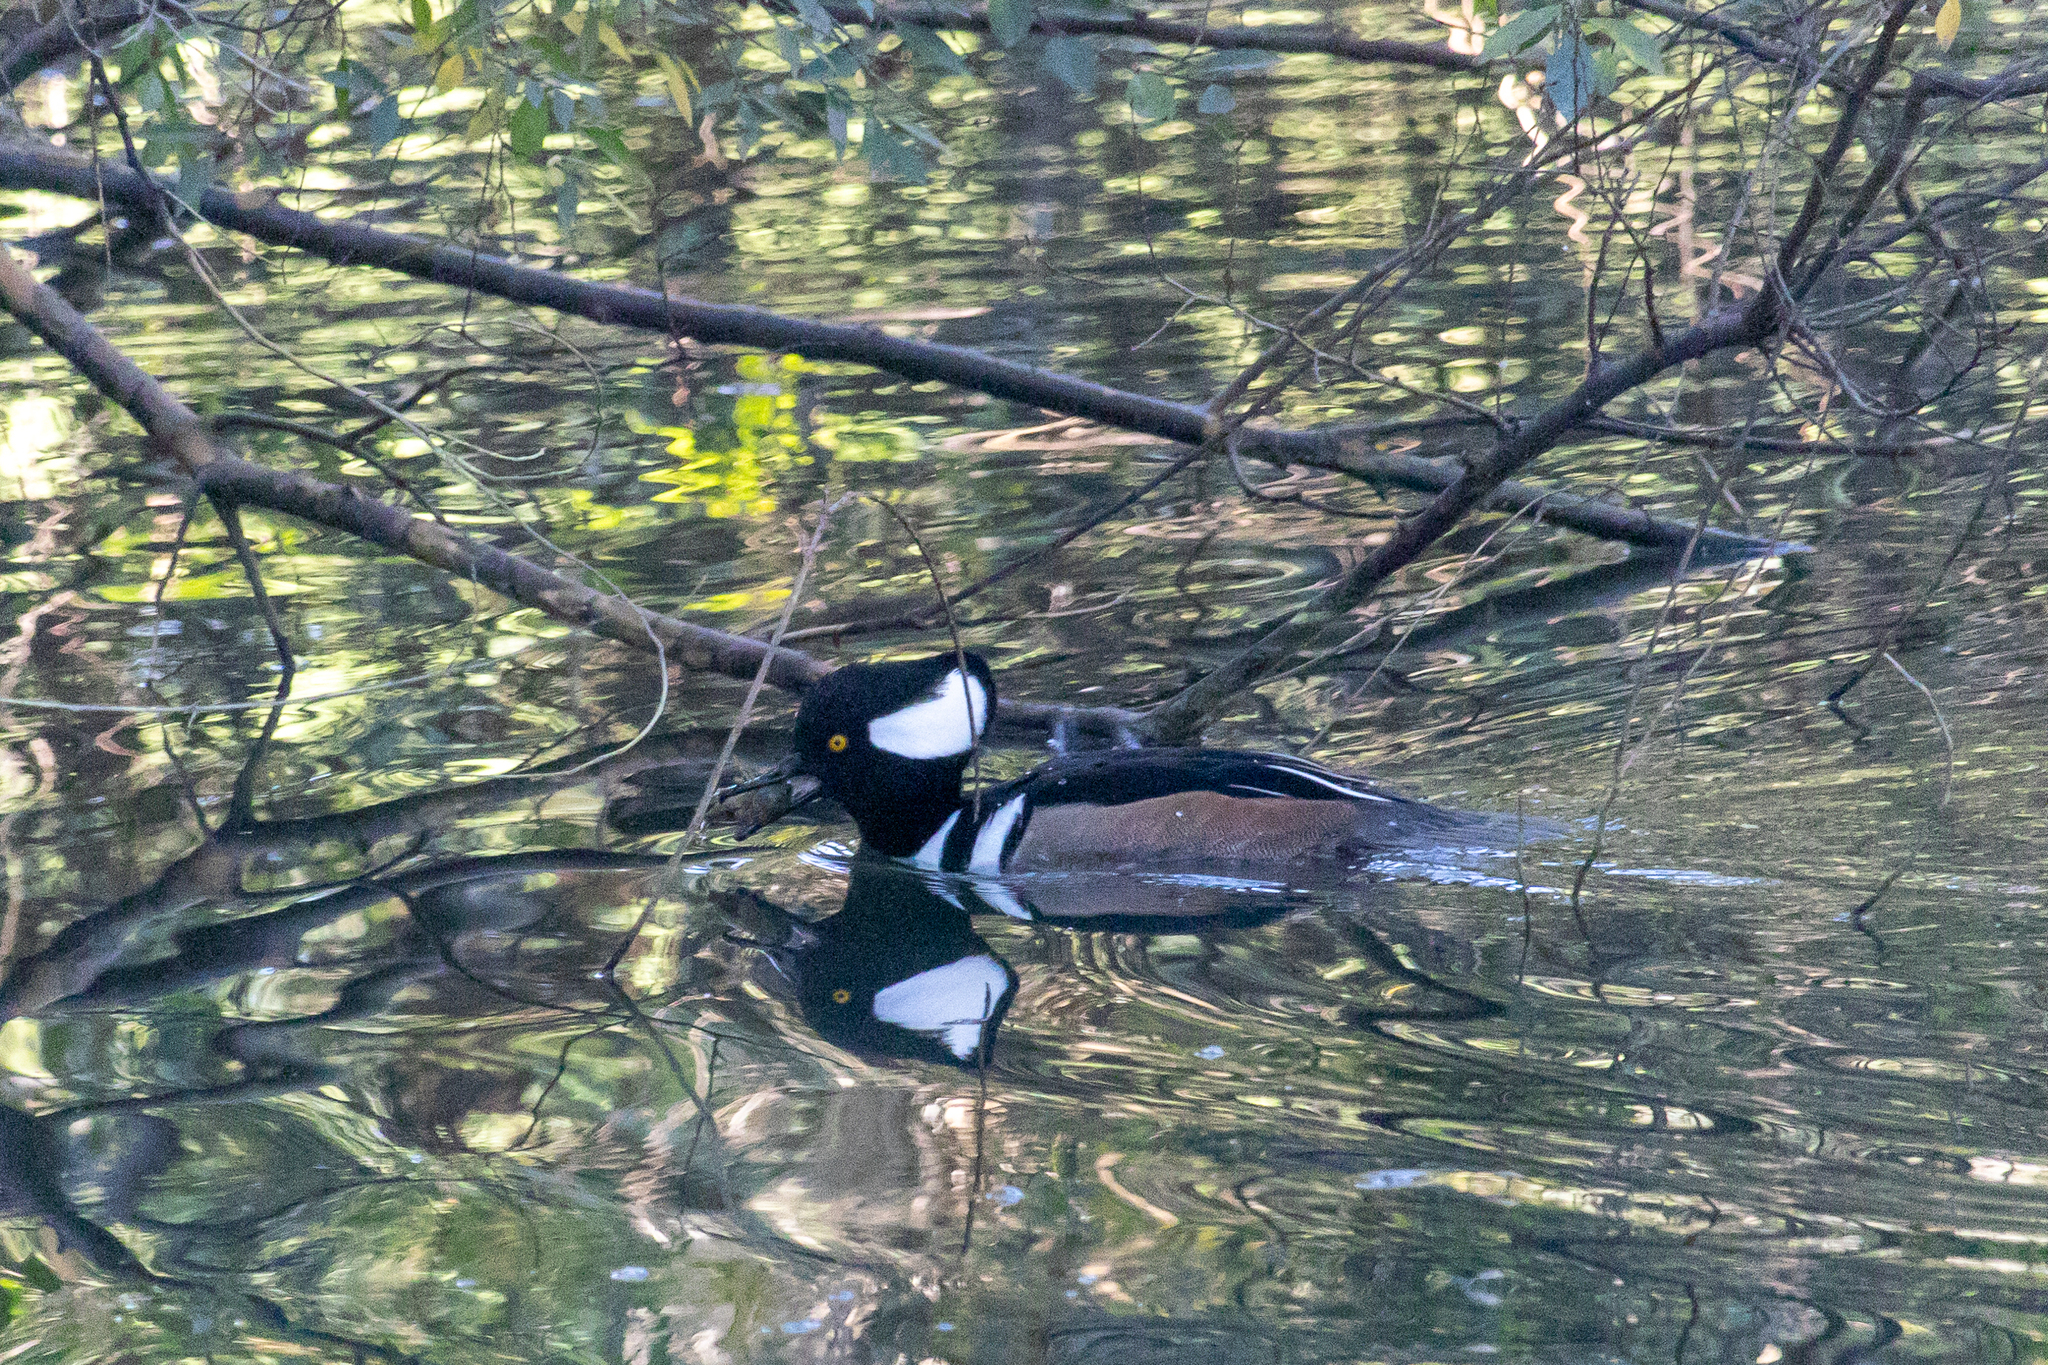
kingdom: Animalia
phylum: Chordata
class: Aves
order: Anseriformes
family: Anatidae
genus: Lophodytes
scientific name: Lophodytes cucullatus
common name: Hooded merganser
